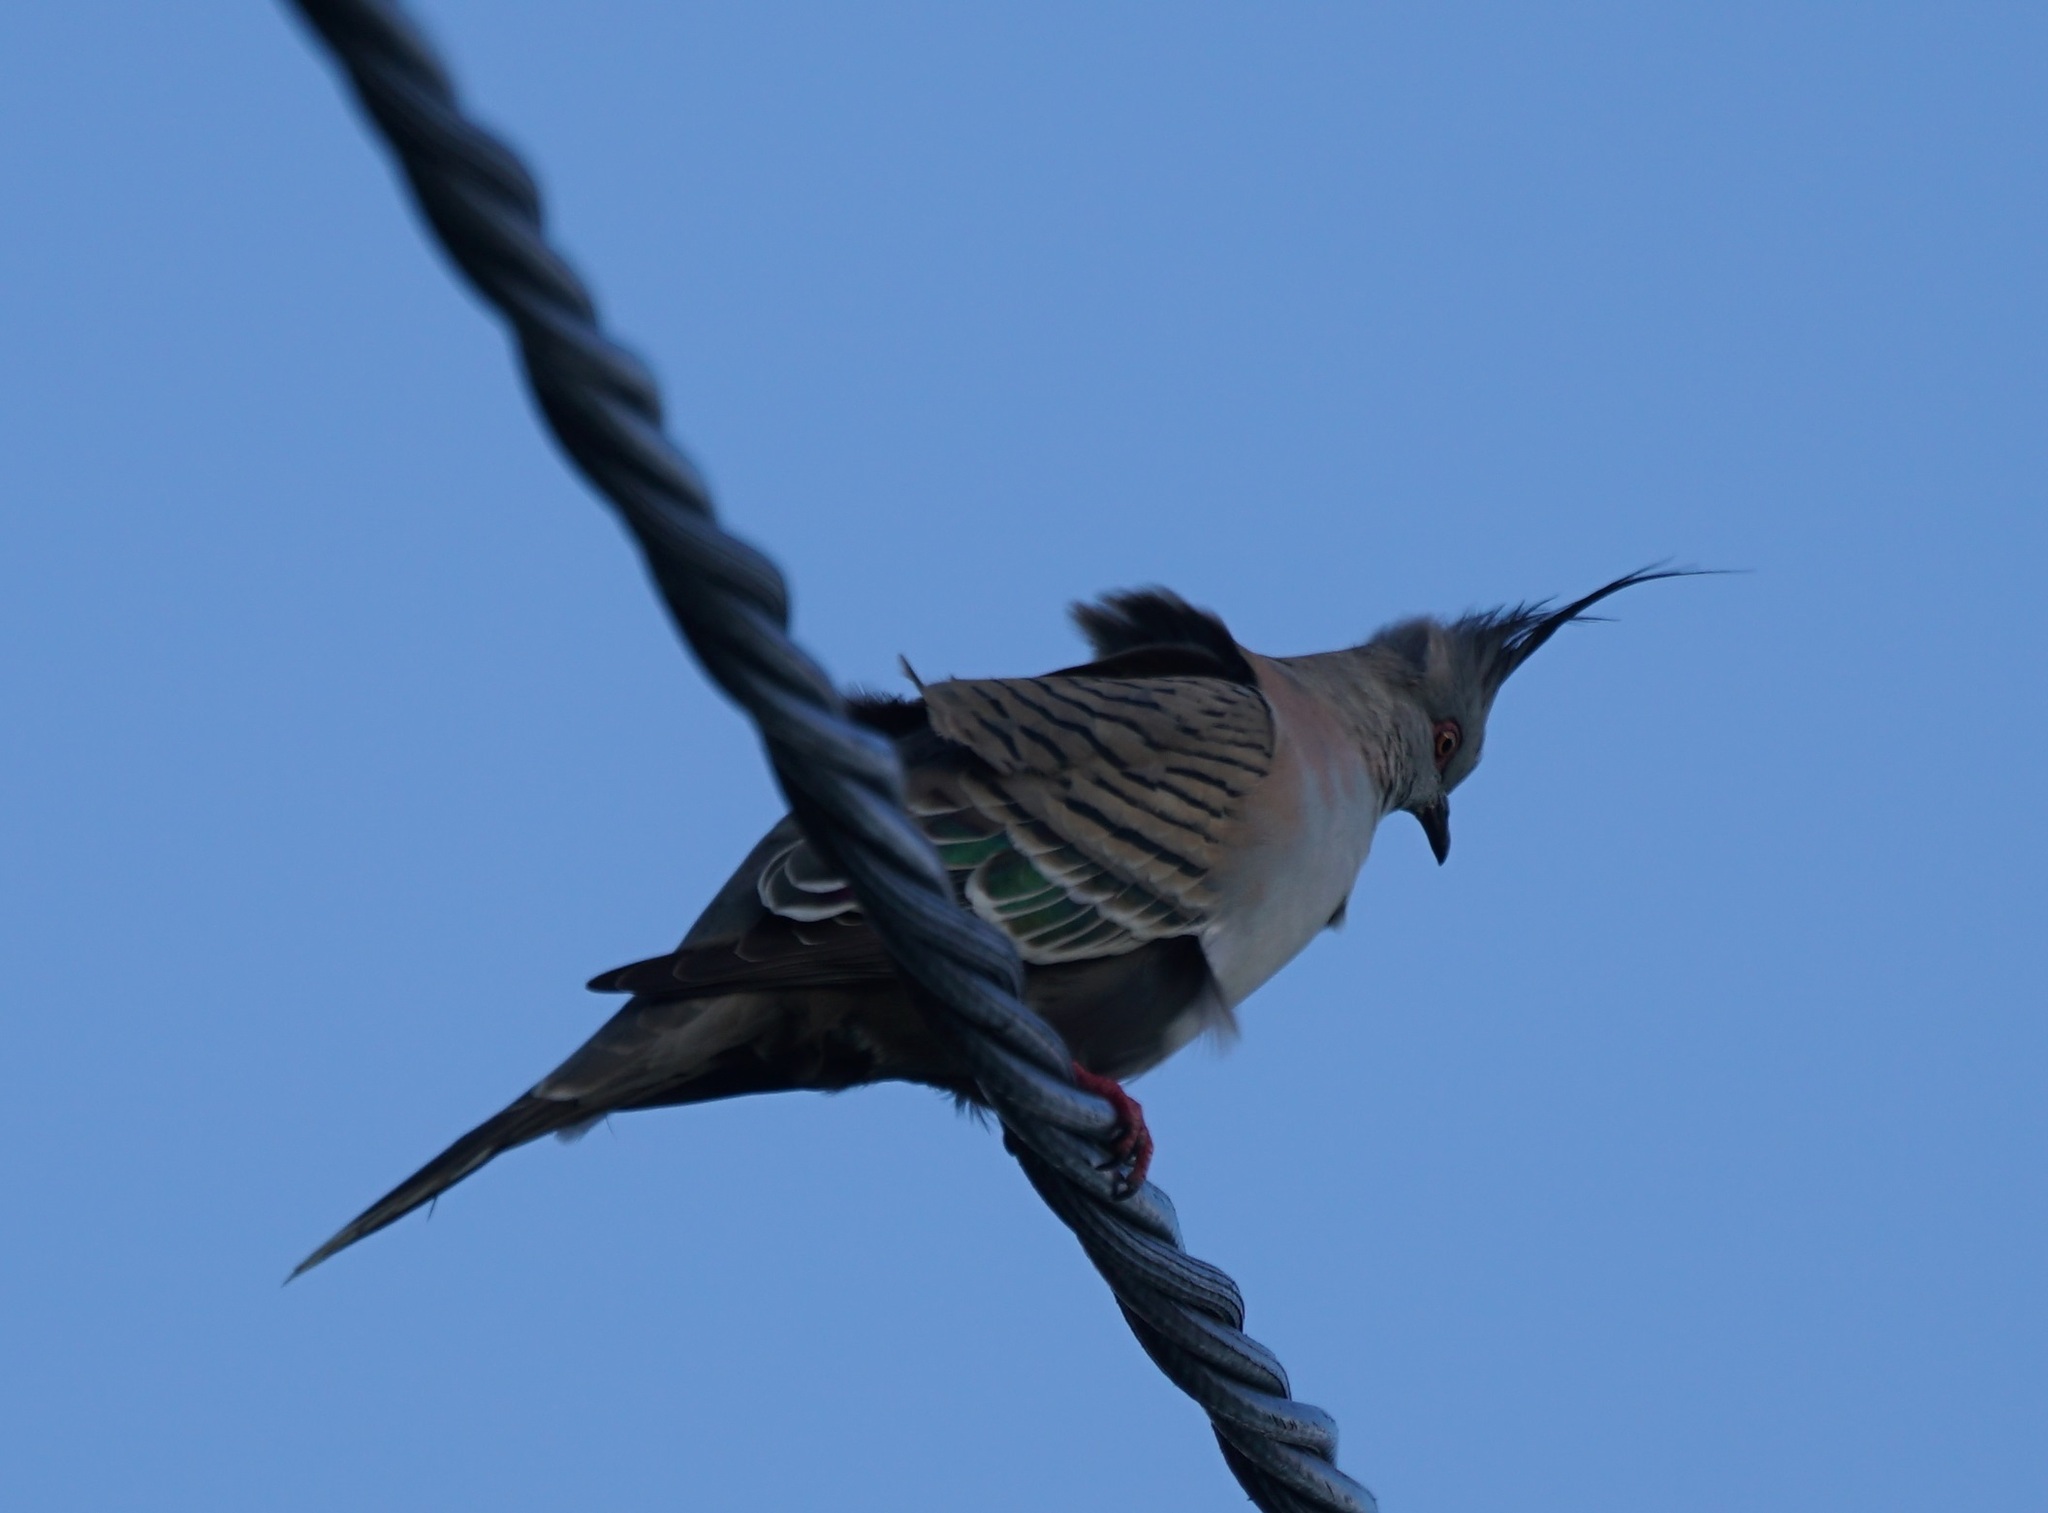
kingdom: Animalia
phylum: Chordata
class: Aves
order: Columbiformes
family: Columbidae
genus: Ocyphaps
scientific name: Ocyphaps lophotes
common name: Crested pigeon
